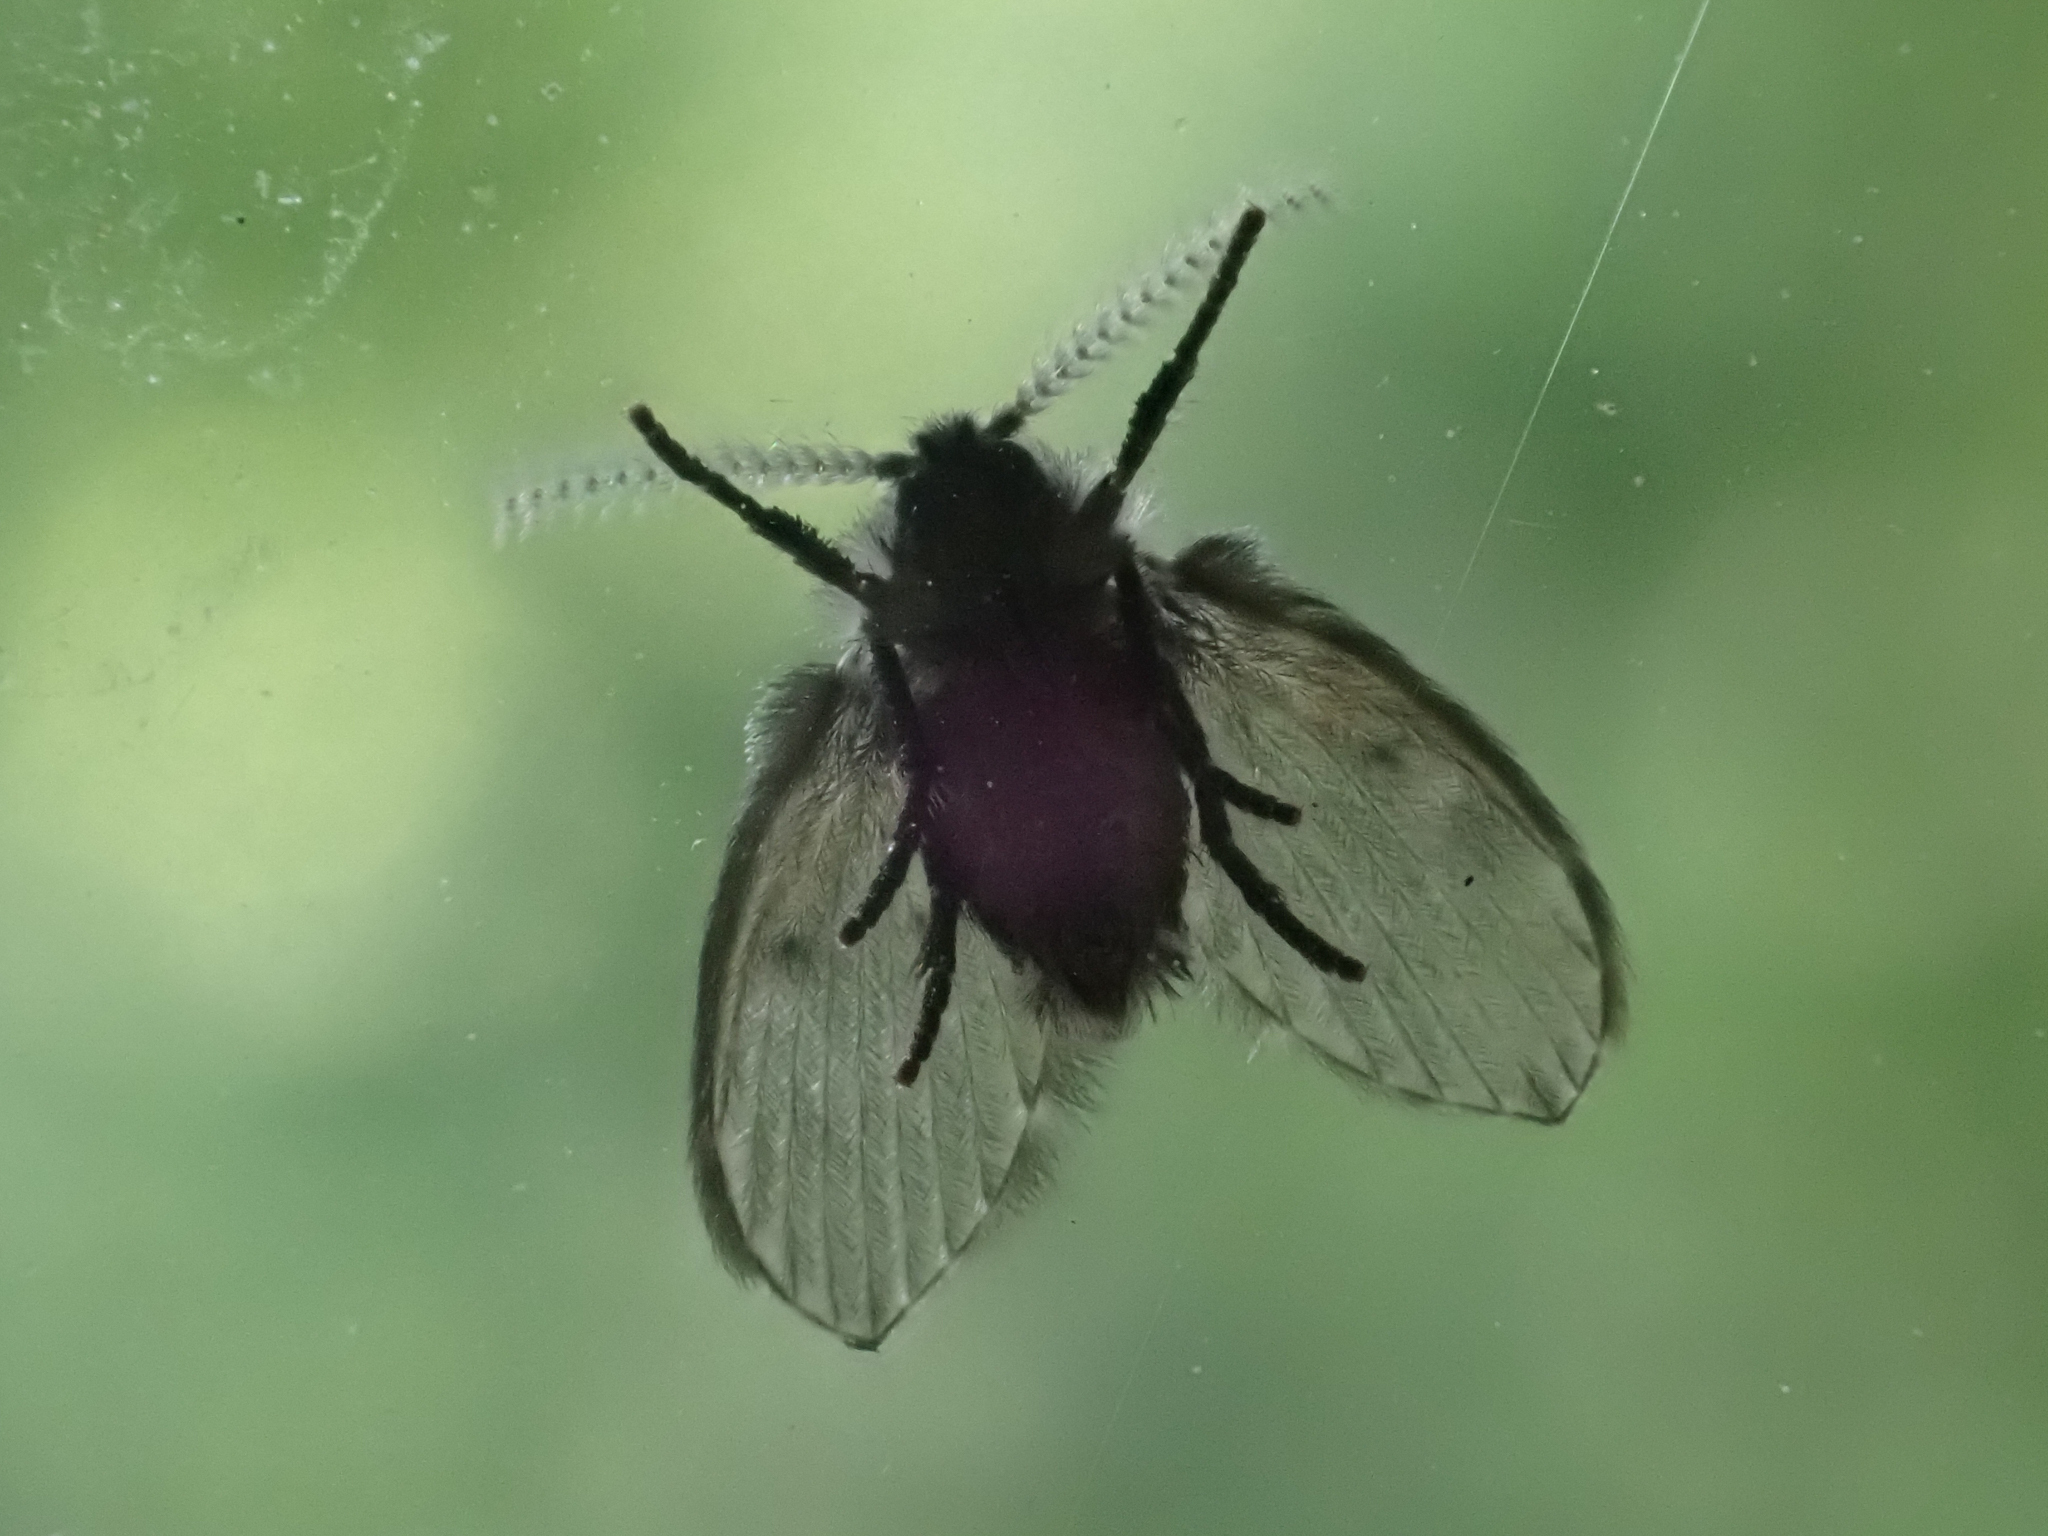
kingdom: Animalia
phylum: Arthropoda
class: Insecta
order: Diptera
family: Psychodidae
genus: Clogmia
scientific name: Clogmia albipunctatus
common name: White-spotted moth fly
